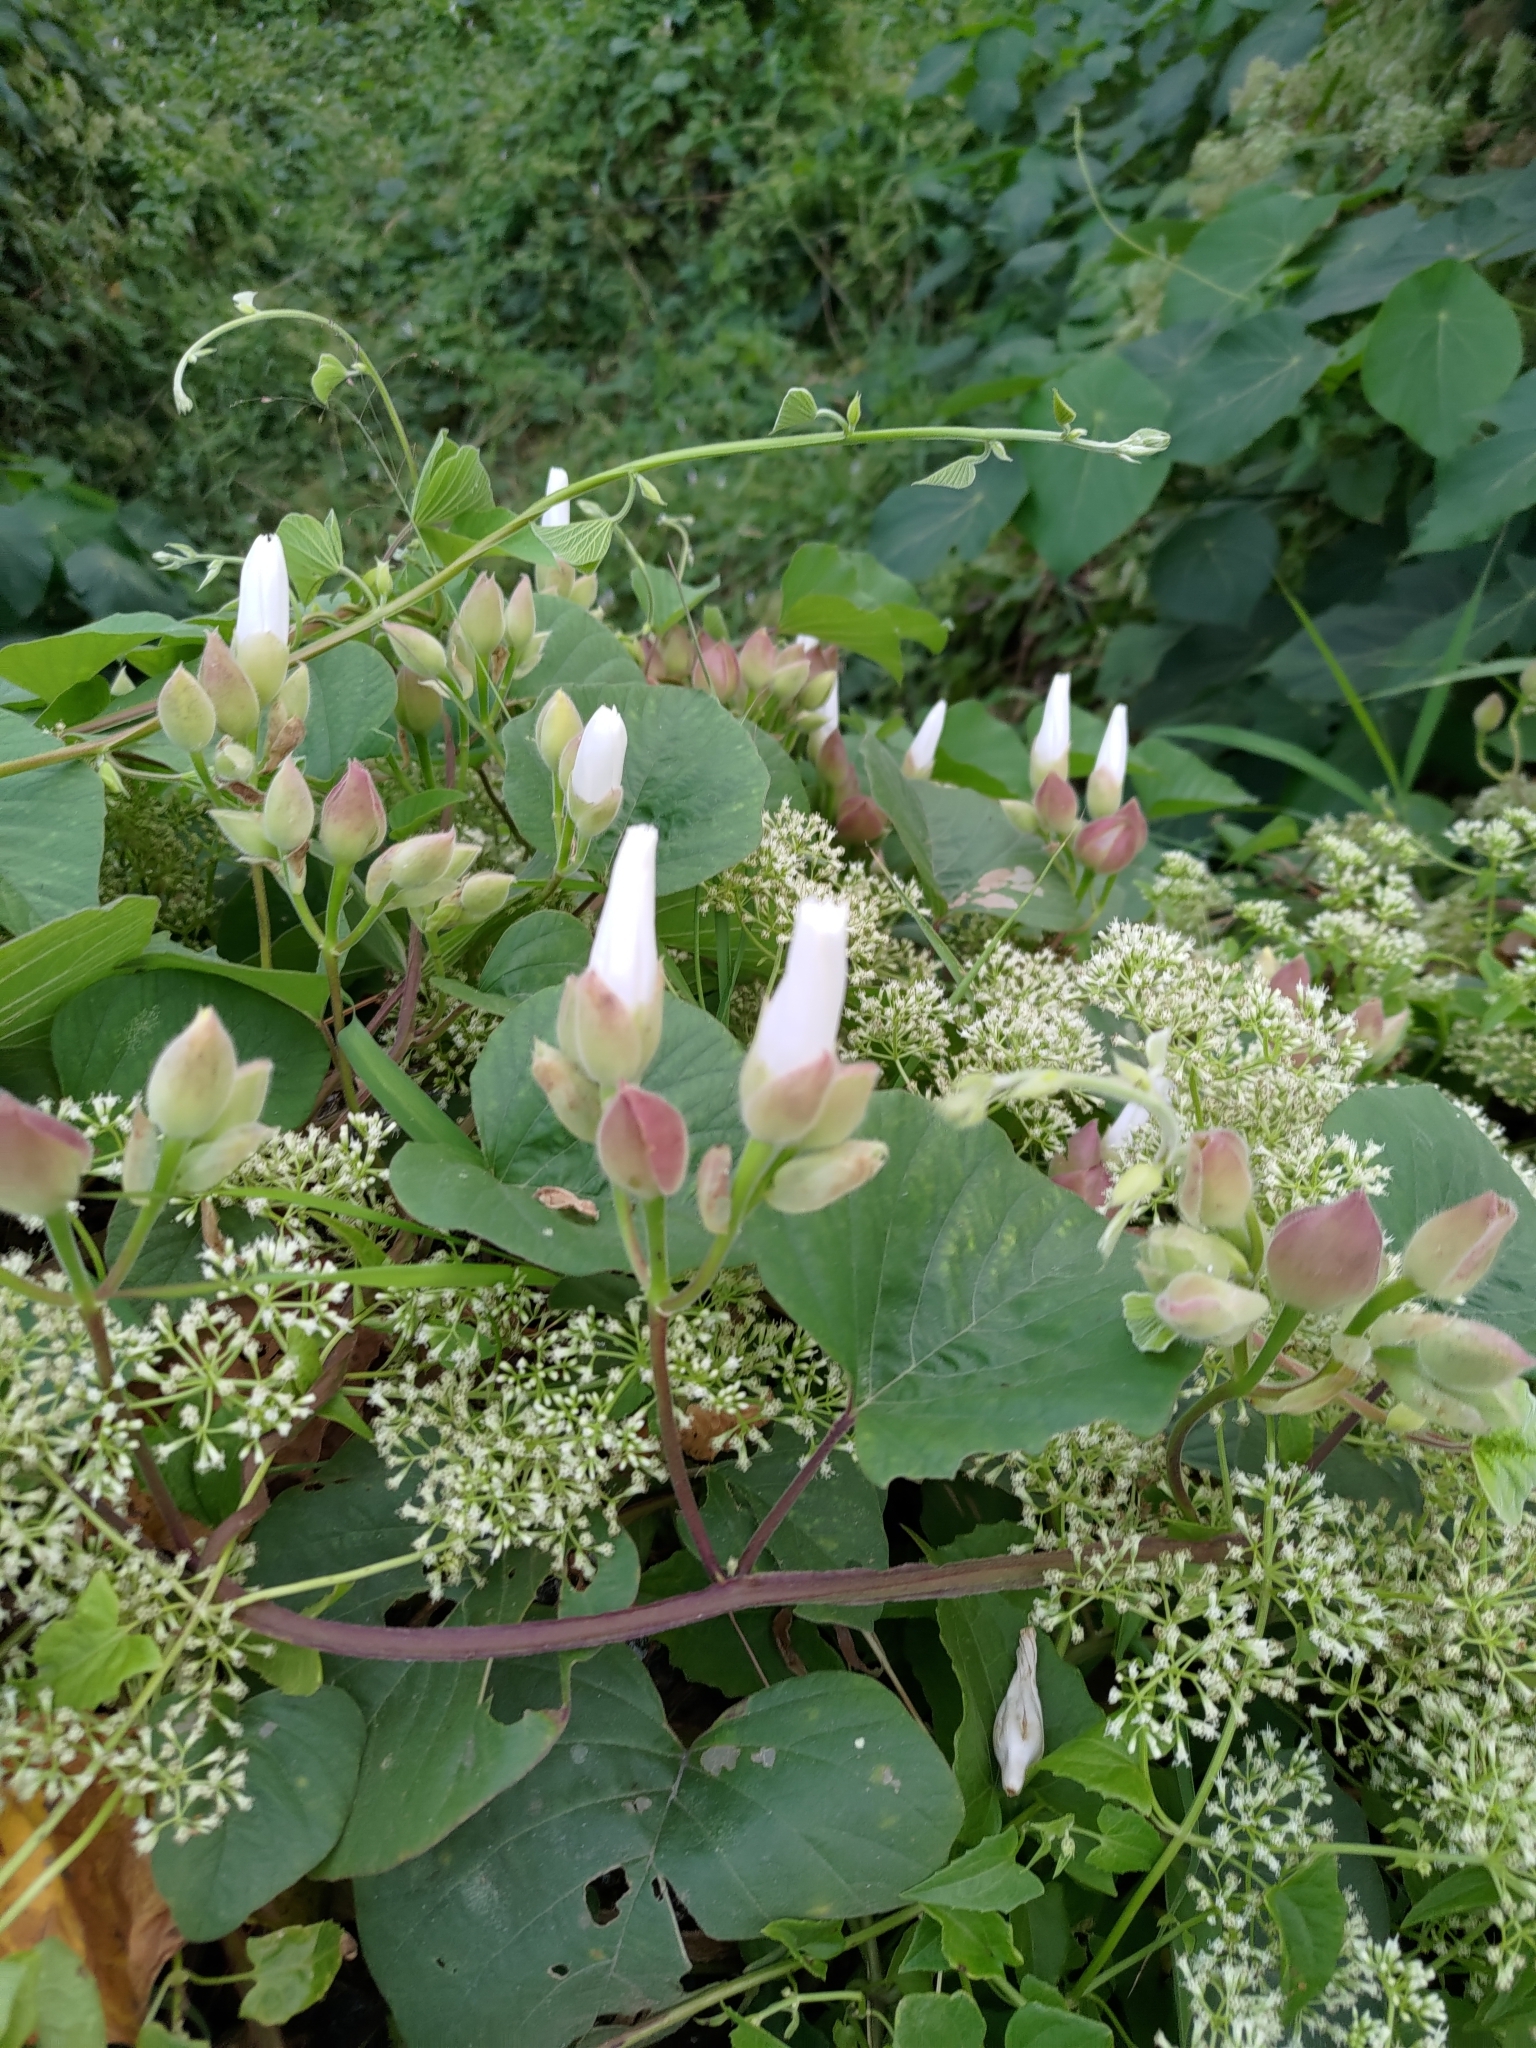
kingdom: Plantae
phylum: Tracheophyta
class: Magnoliopsida
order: Solanales
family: Convolvulaceae
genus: Operculina
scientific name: Operculina turpethum
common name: Transparent wood-rose
